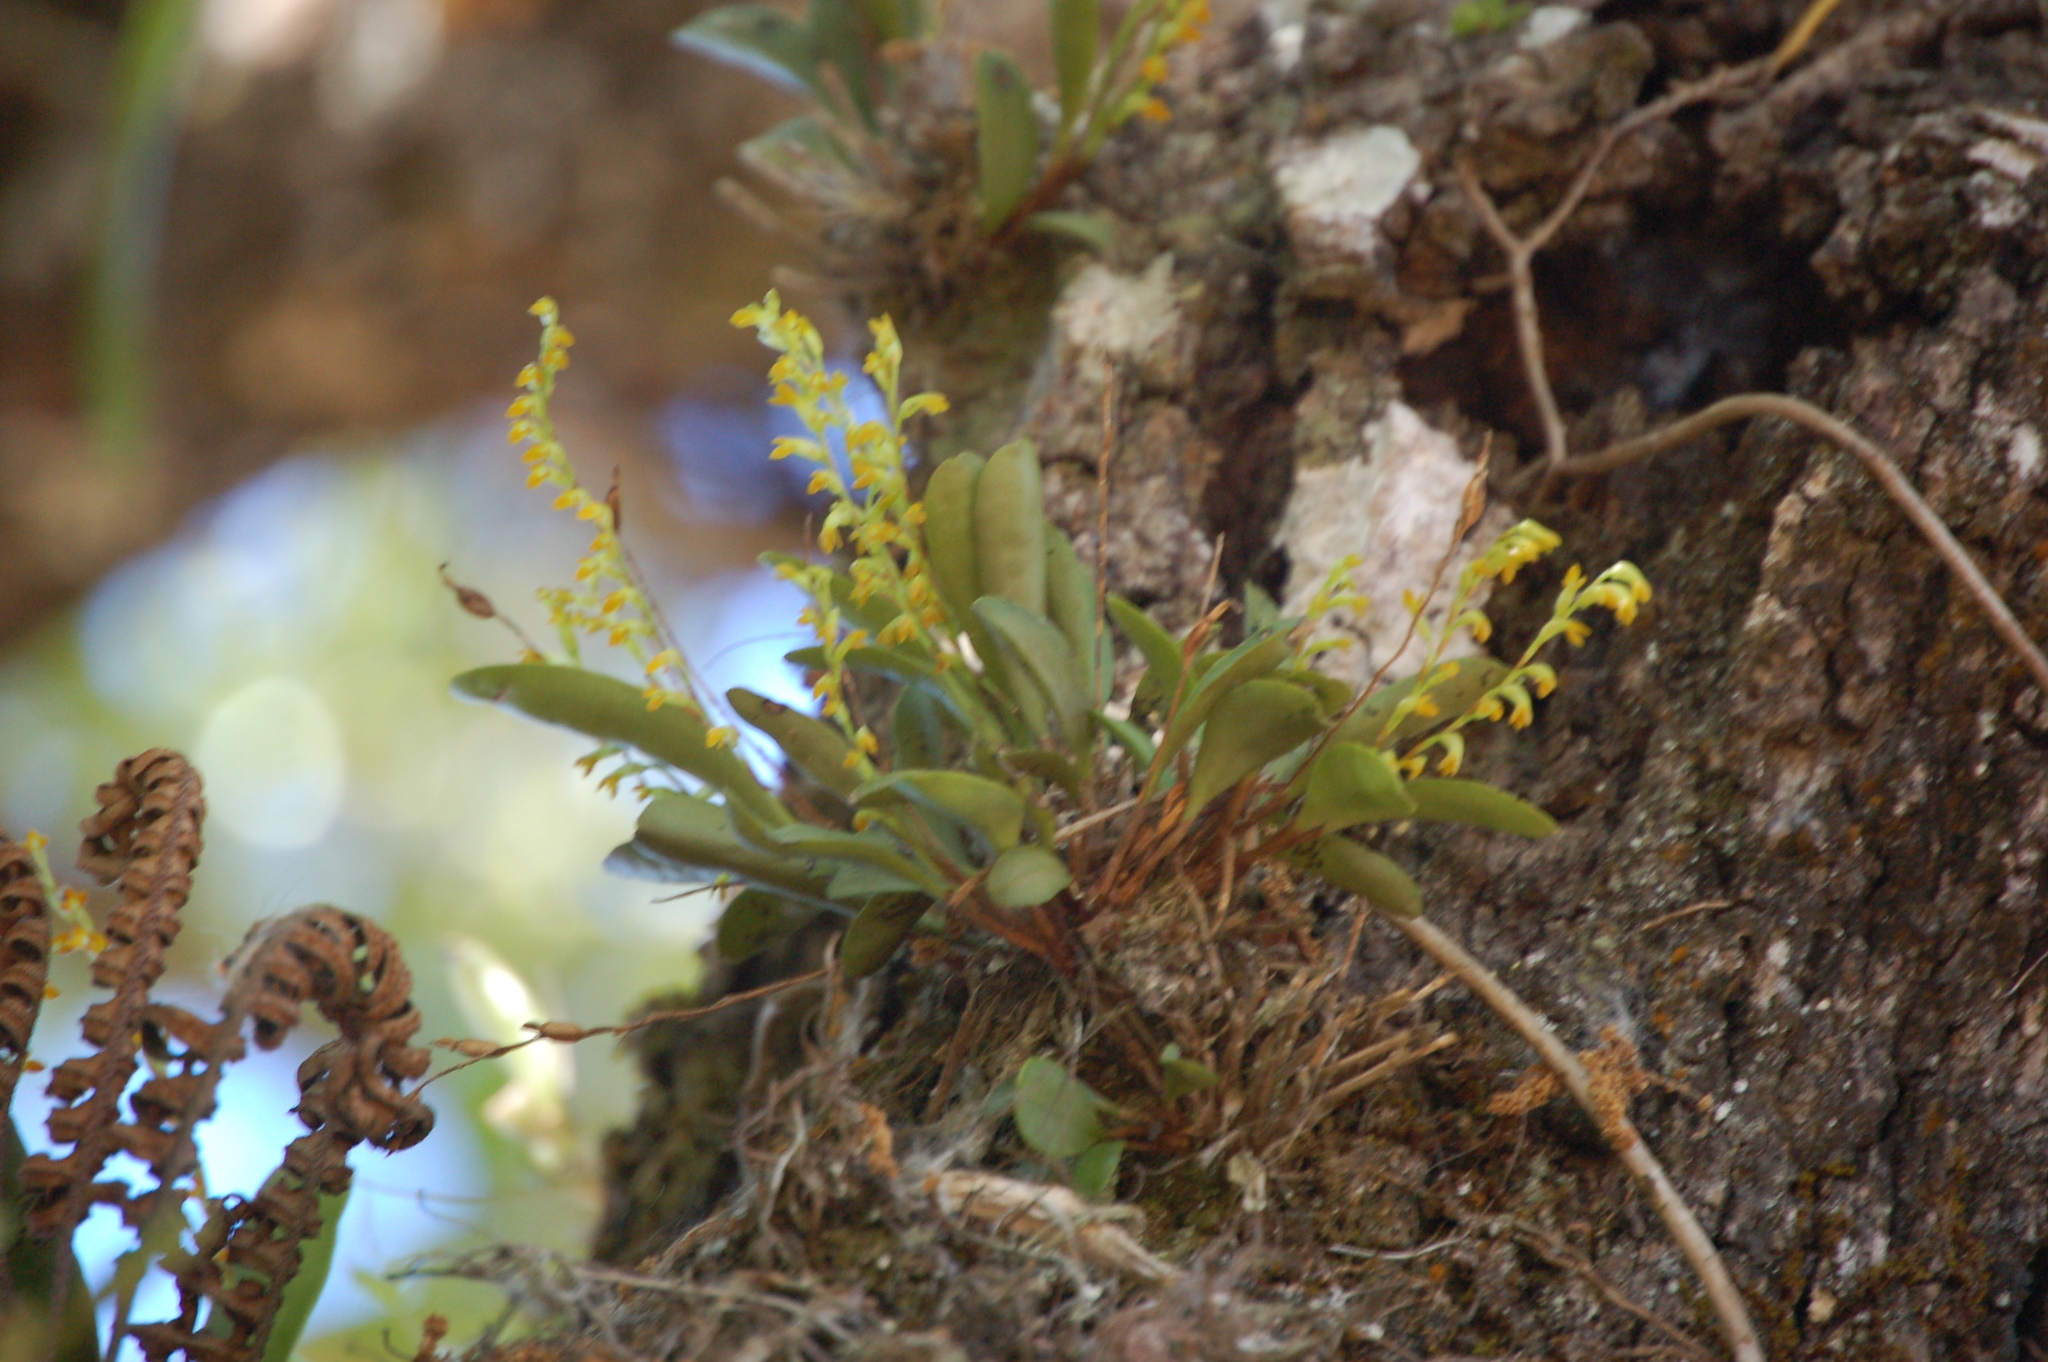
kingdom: Plantae
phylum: Tracheophyta
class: Liliopsida
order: Asparagales
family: Orchidaceae
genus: Stelis
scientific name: Stelis emarginata
